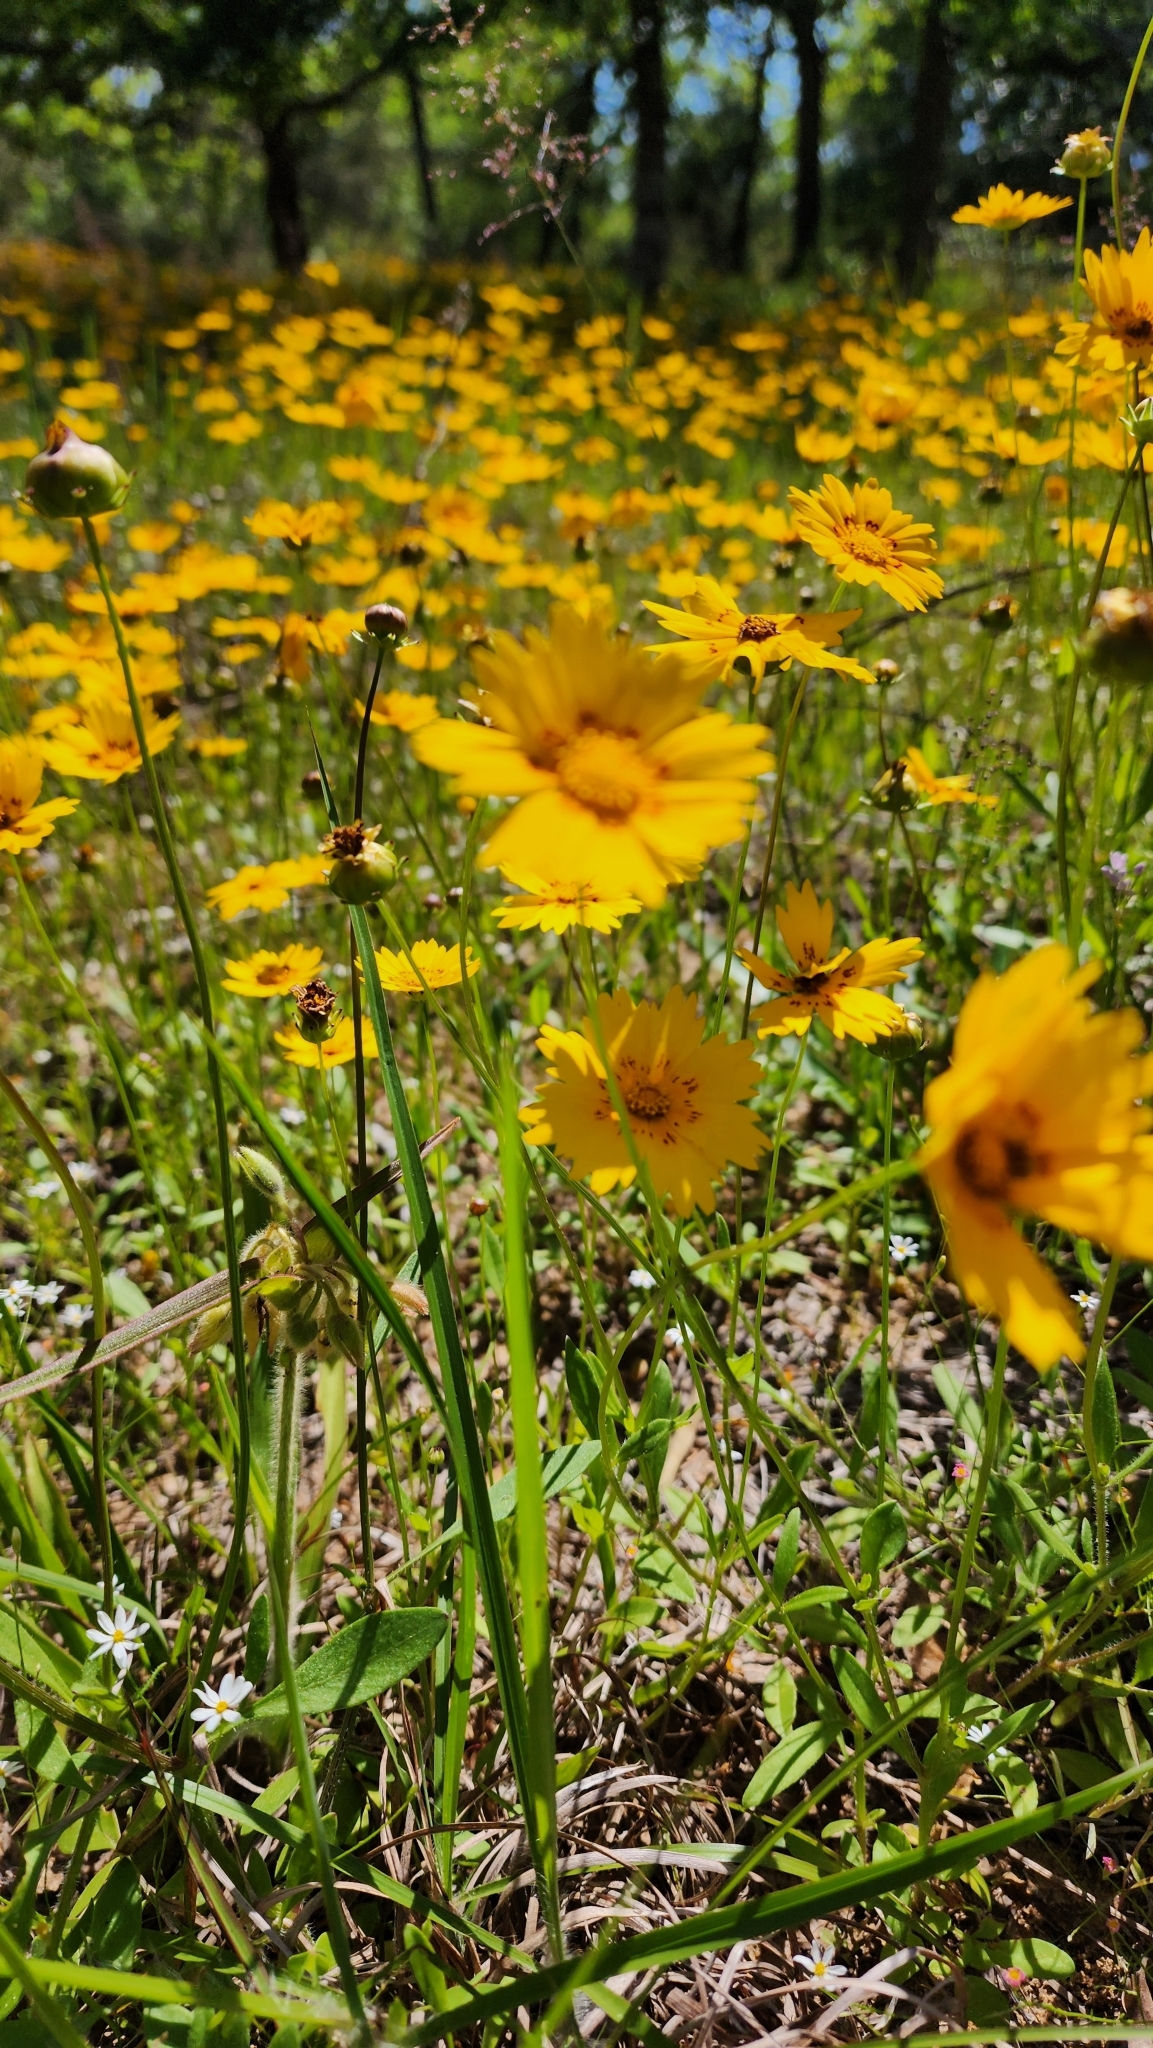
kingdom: Plantae
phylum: Tracheophyta
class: Magnoliopsida
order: Asterales
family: Asteraceae
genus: Coreopsis
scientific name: Coreopsis nuecensis
